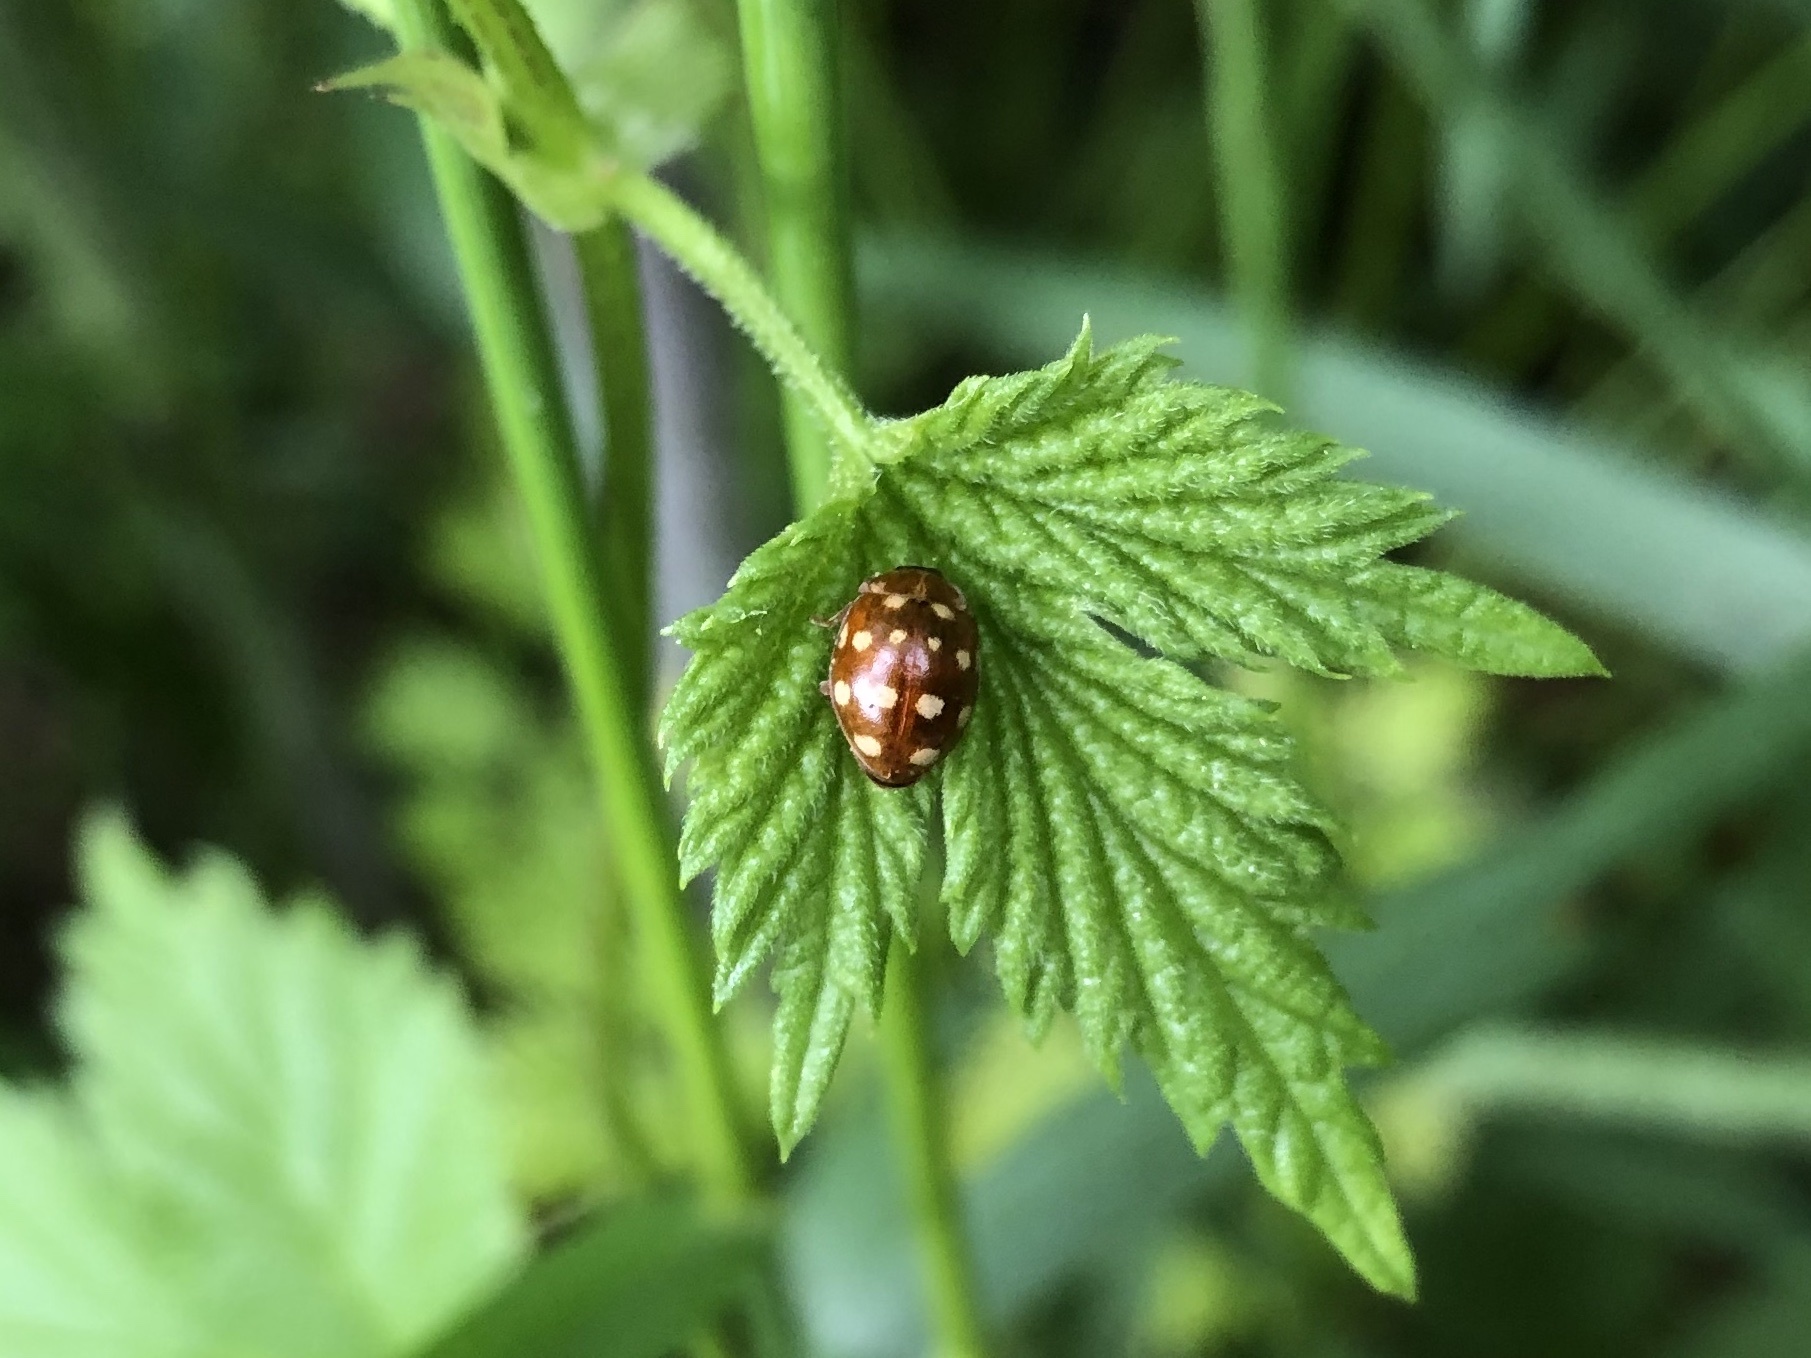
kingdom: Animalia
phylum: Arthropoda
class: Insecta
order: Coleoptera
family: Coccinellidae
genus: Calvia
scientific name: Calvia quatuordecimguttata
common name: Cream-spot ladybird
